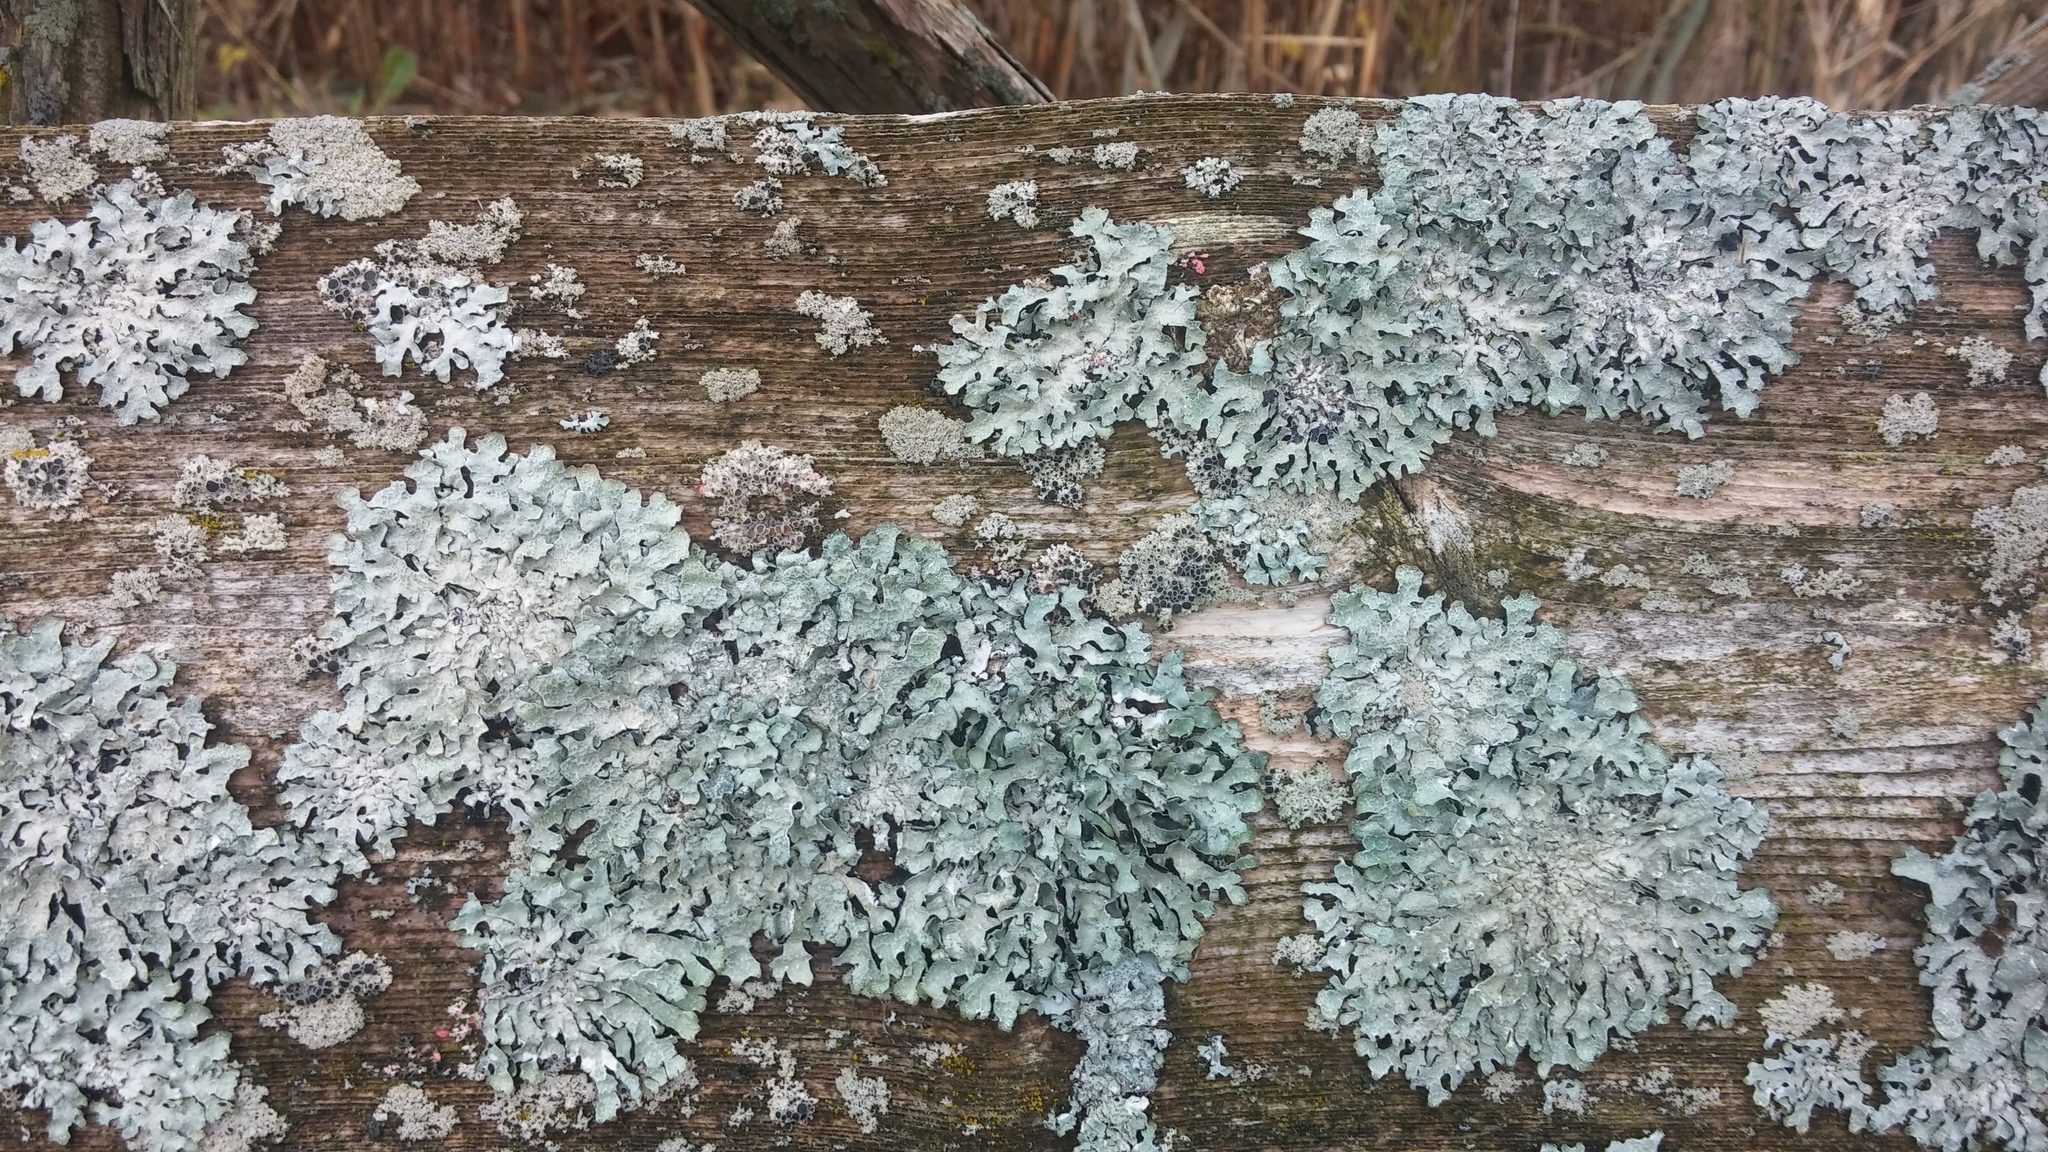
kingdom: Fungi
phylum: Ascomycota
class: Lecanoromycetes
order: Lecanorales
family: Parmeliaceae
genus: Parmelia
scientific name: Parmelia sulcata
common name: Netted shield lichen
